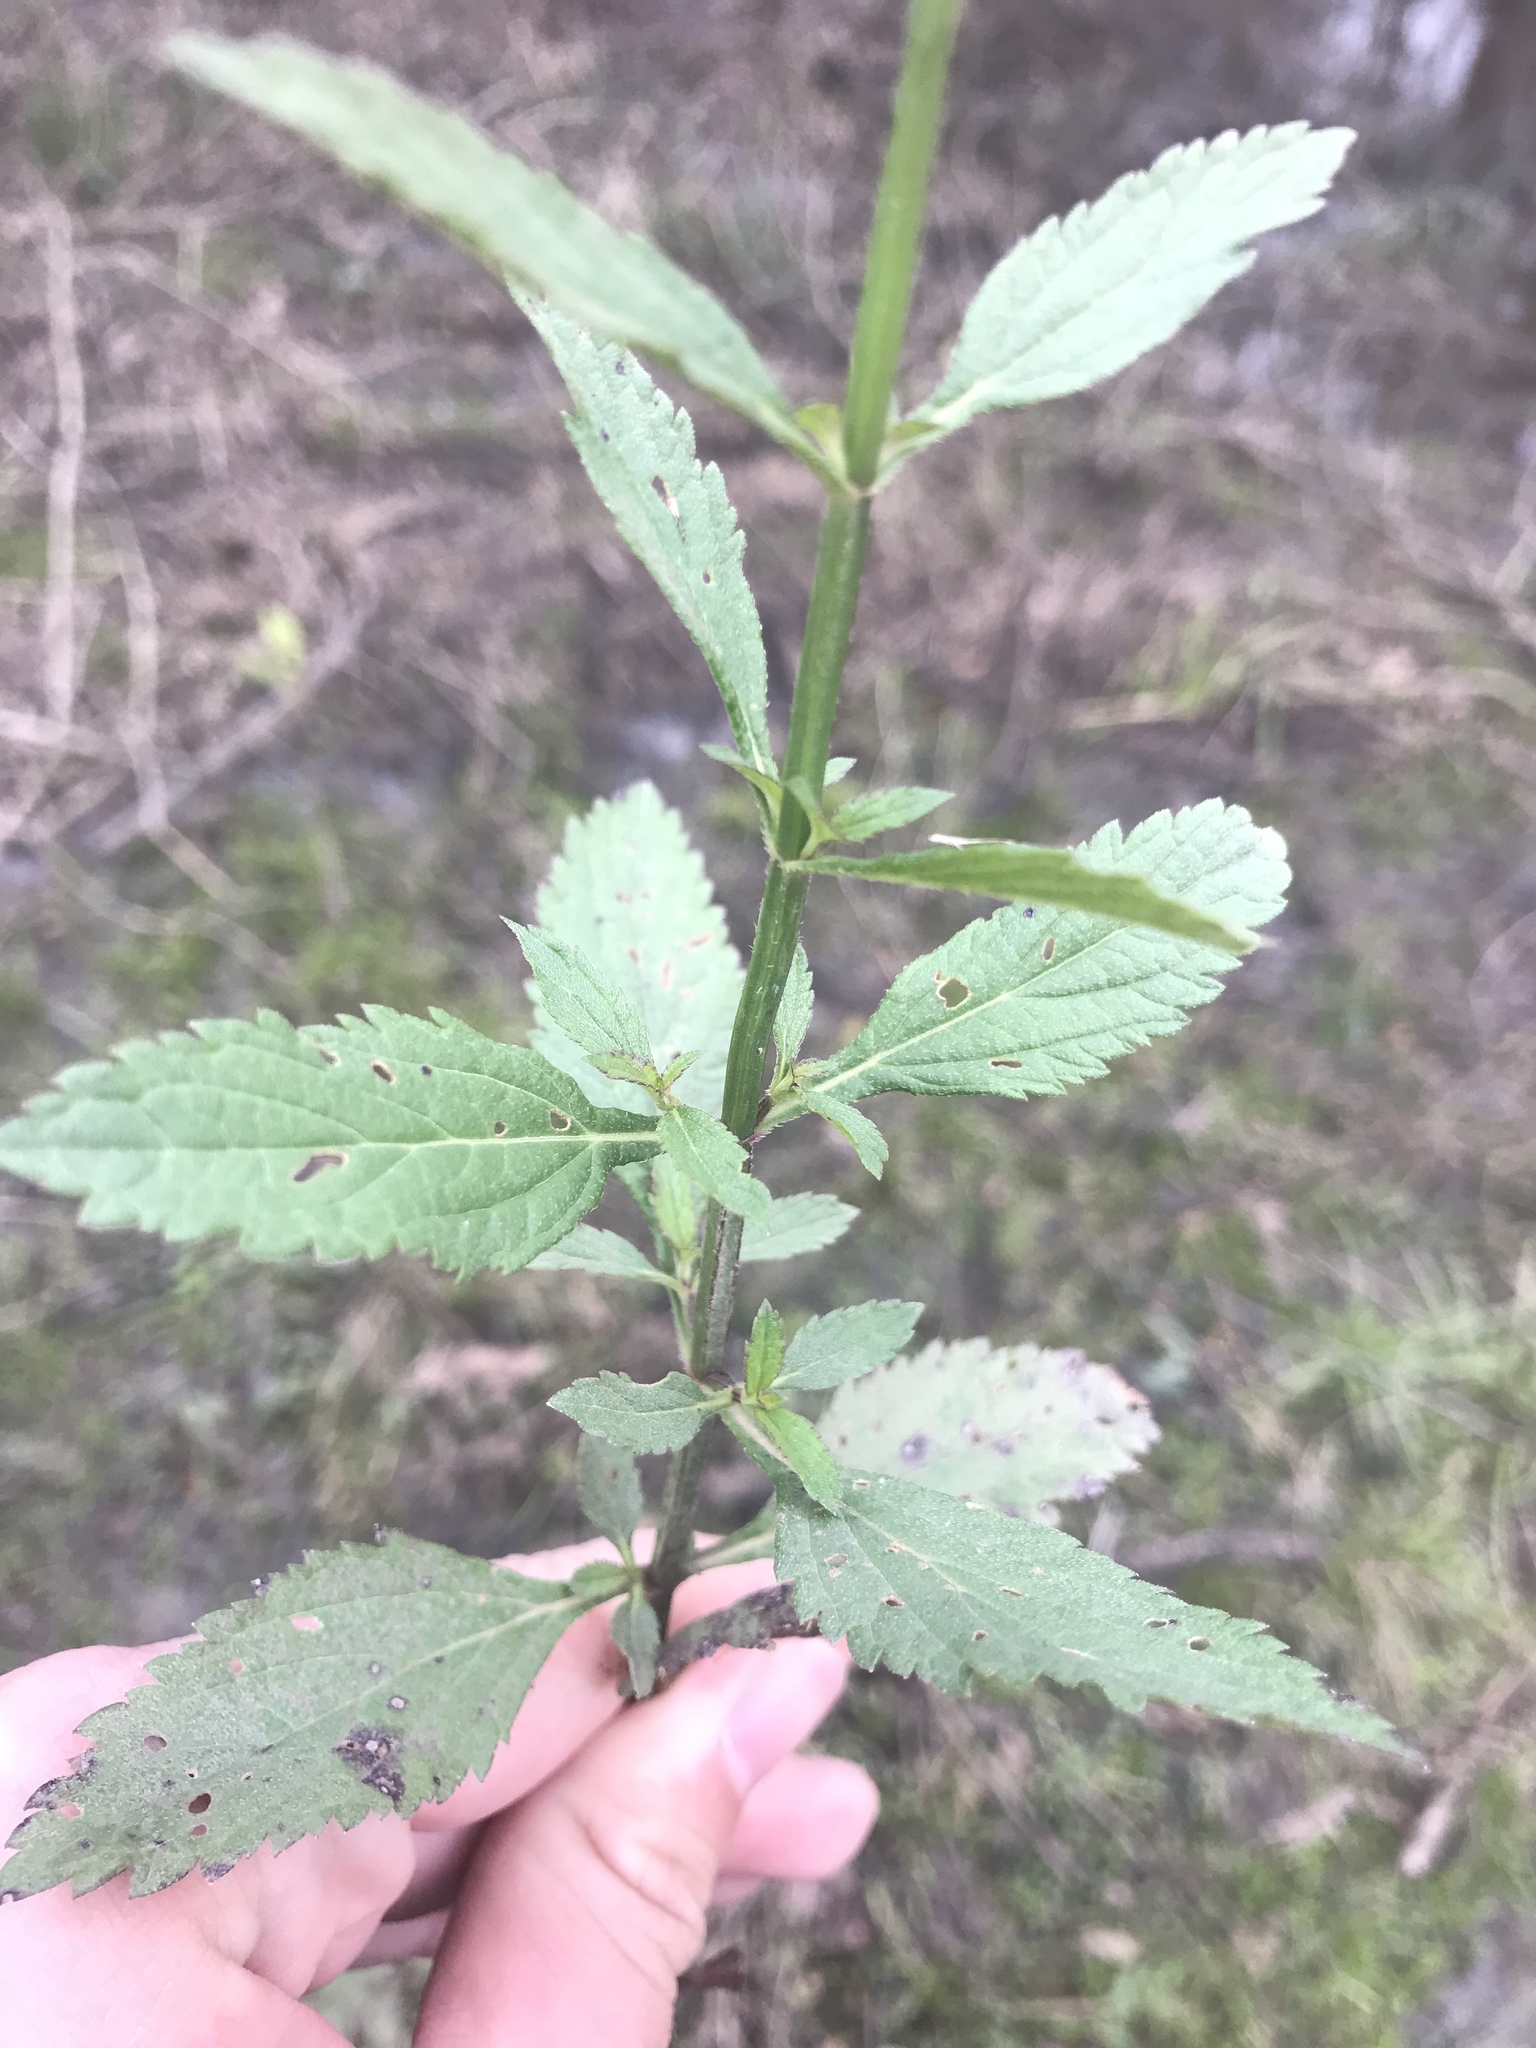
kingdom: Plantae
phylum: Tracheophyta
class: Magnoliopsida
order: Lamiales
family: Verbenaceae
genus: Verbena
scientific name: Verbena brasiliensis
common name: Brazilian vervain
